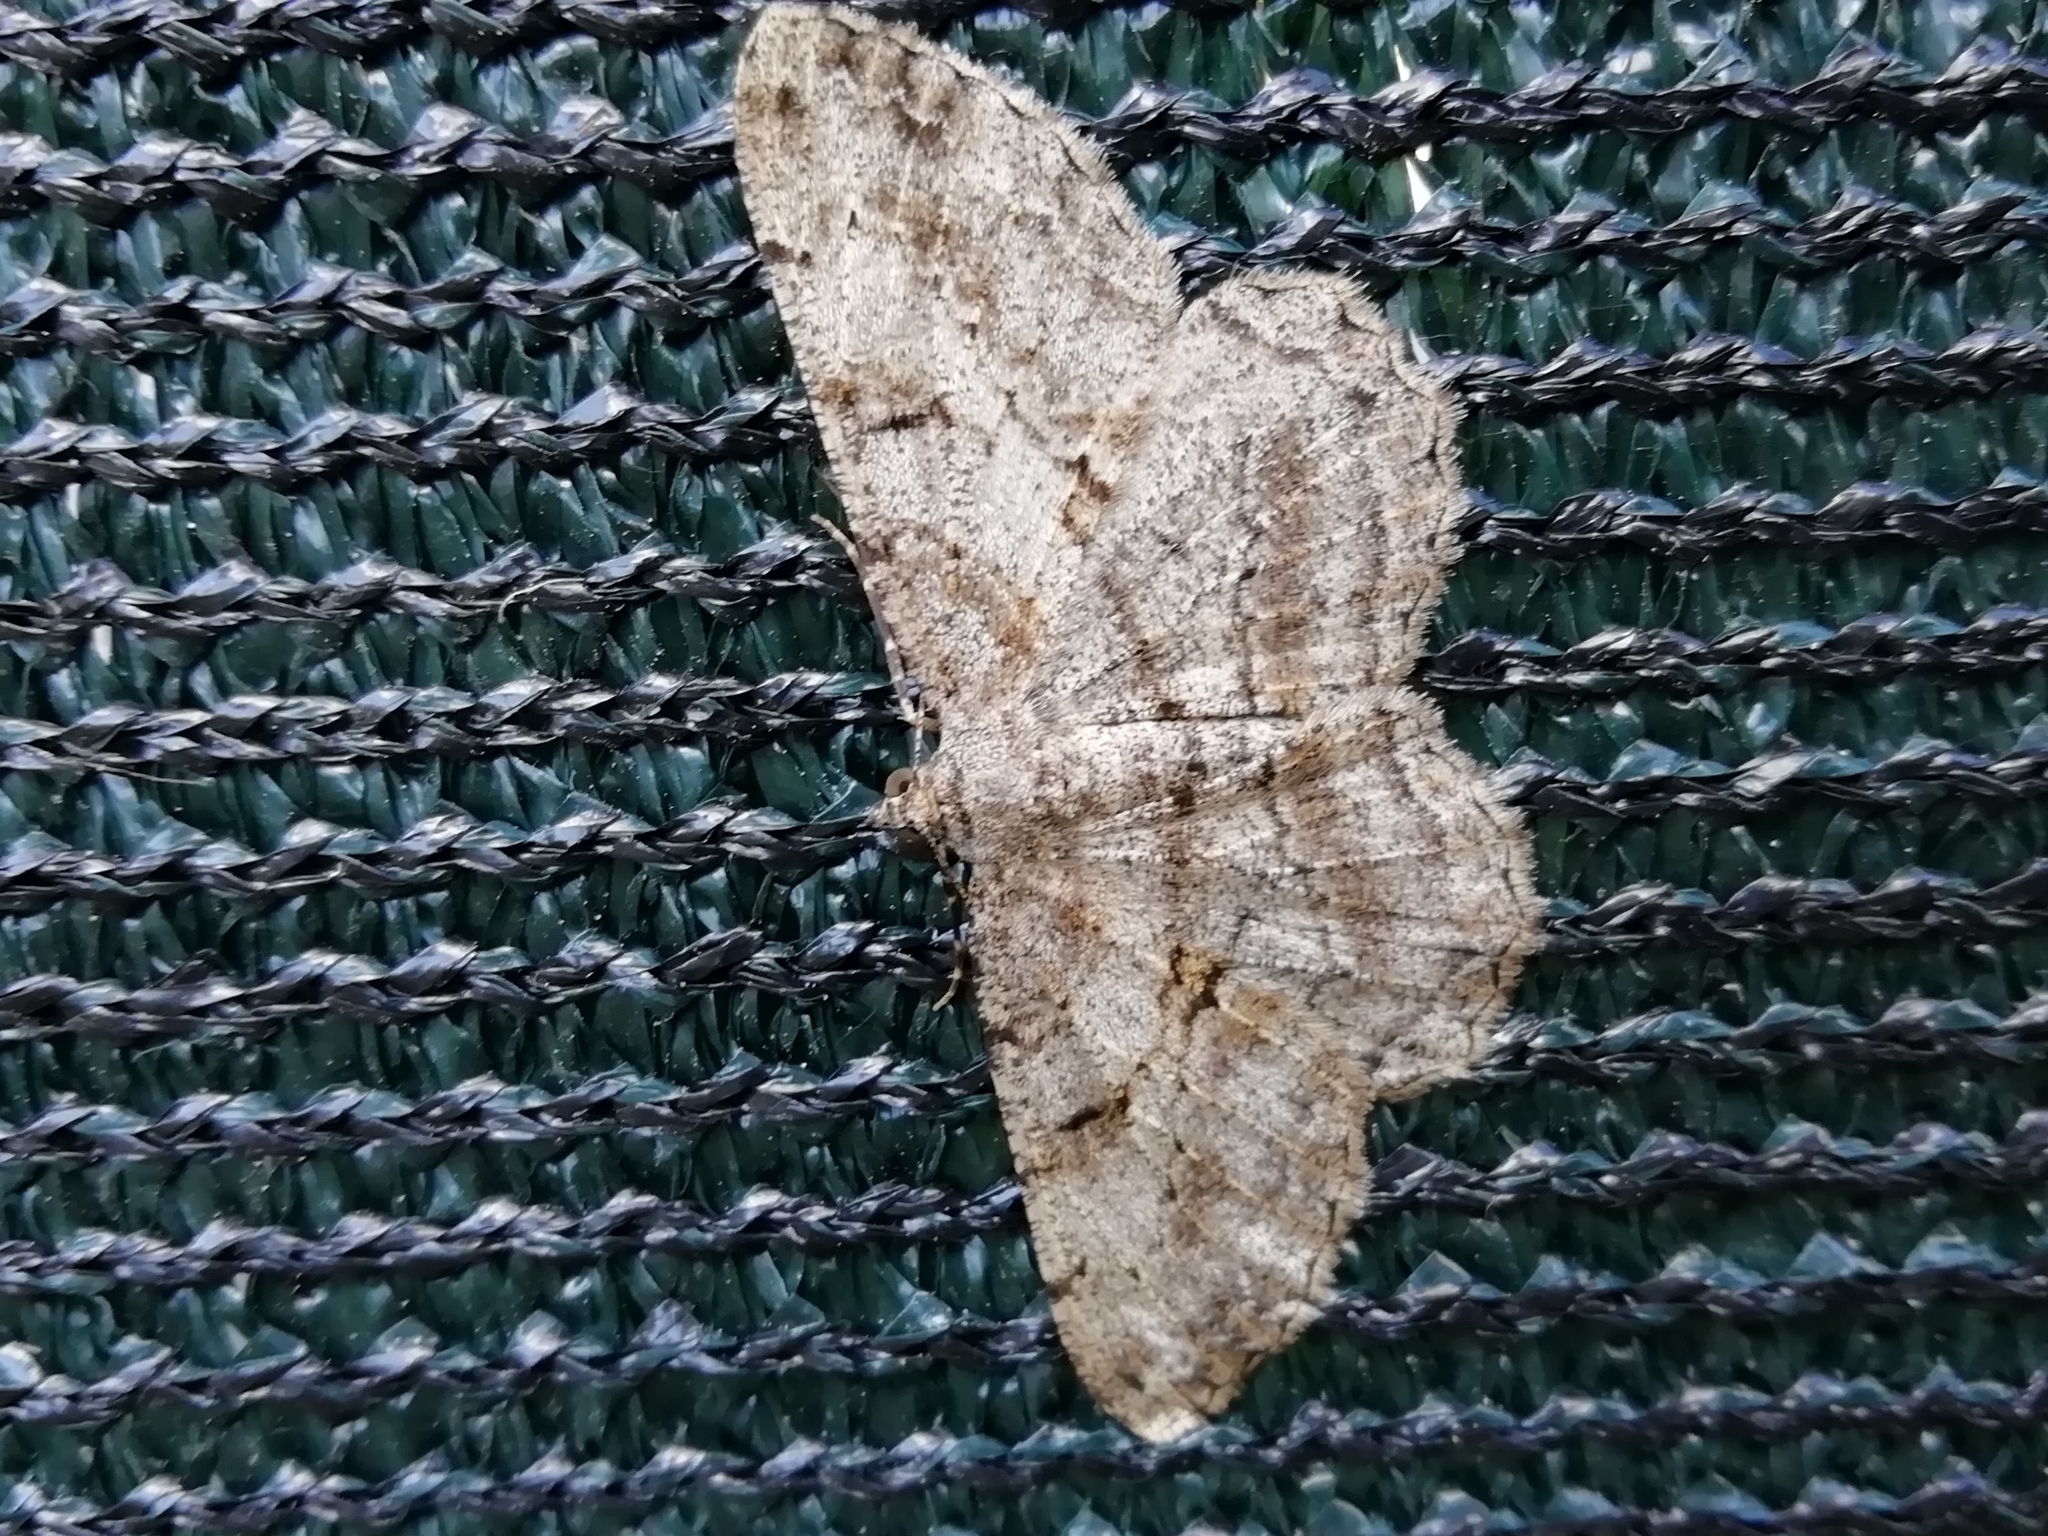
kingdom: Animalia
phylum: Arthropoda
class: Insecta
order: Lepidoptera
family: Geometridae
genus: Peribatodes
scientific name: Peribatodes rhomboidaria
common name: Willow beauty
